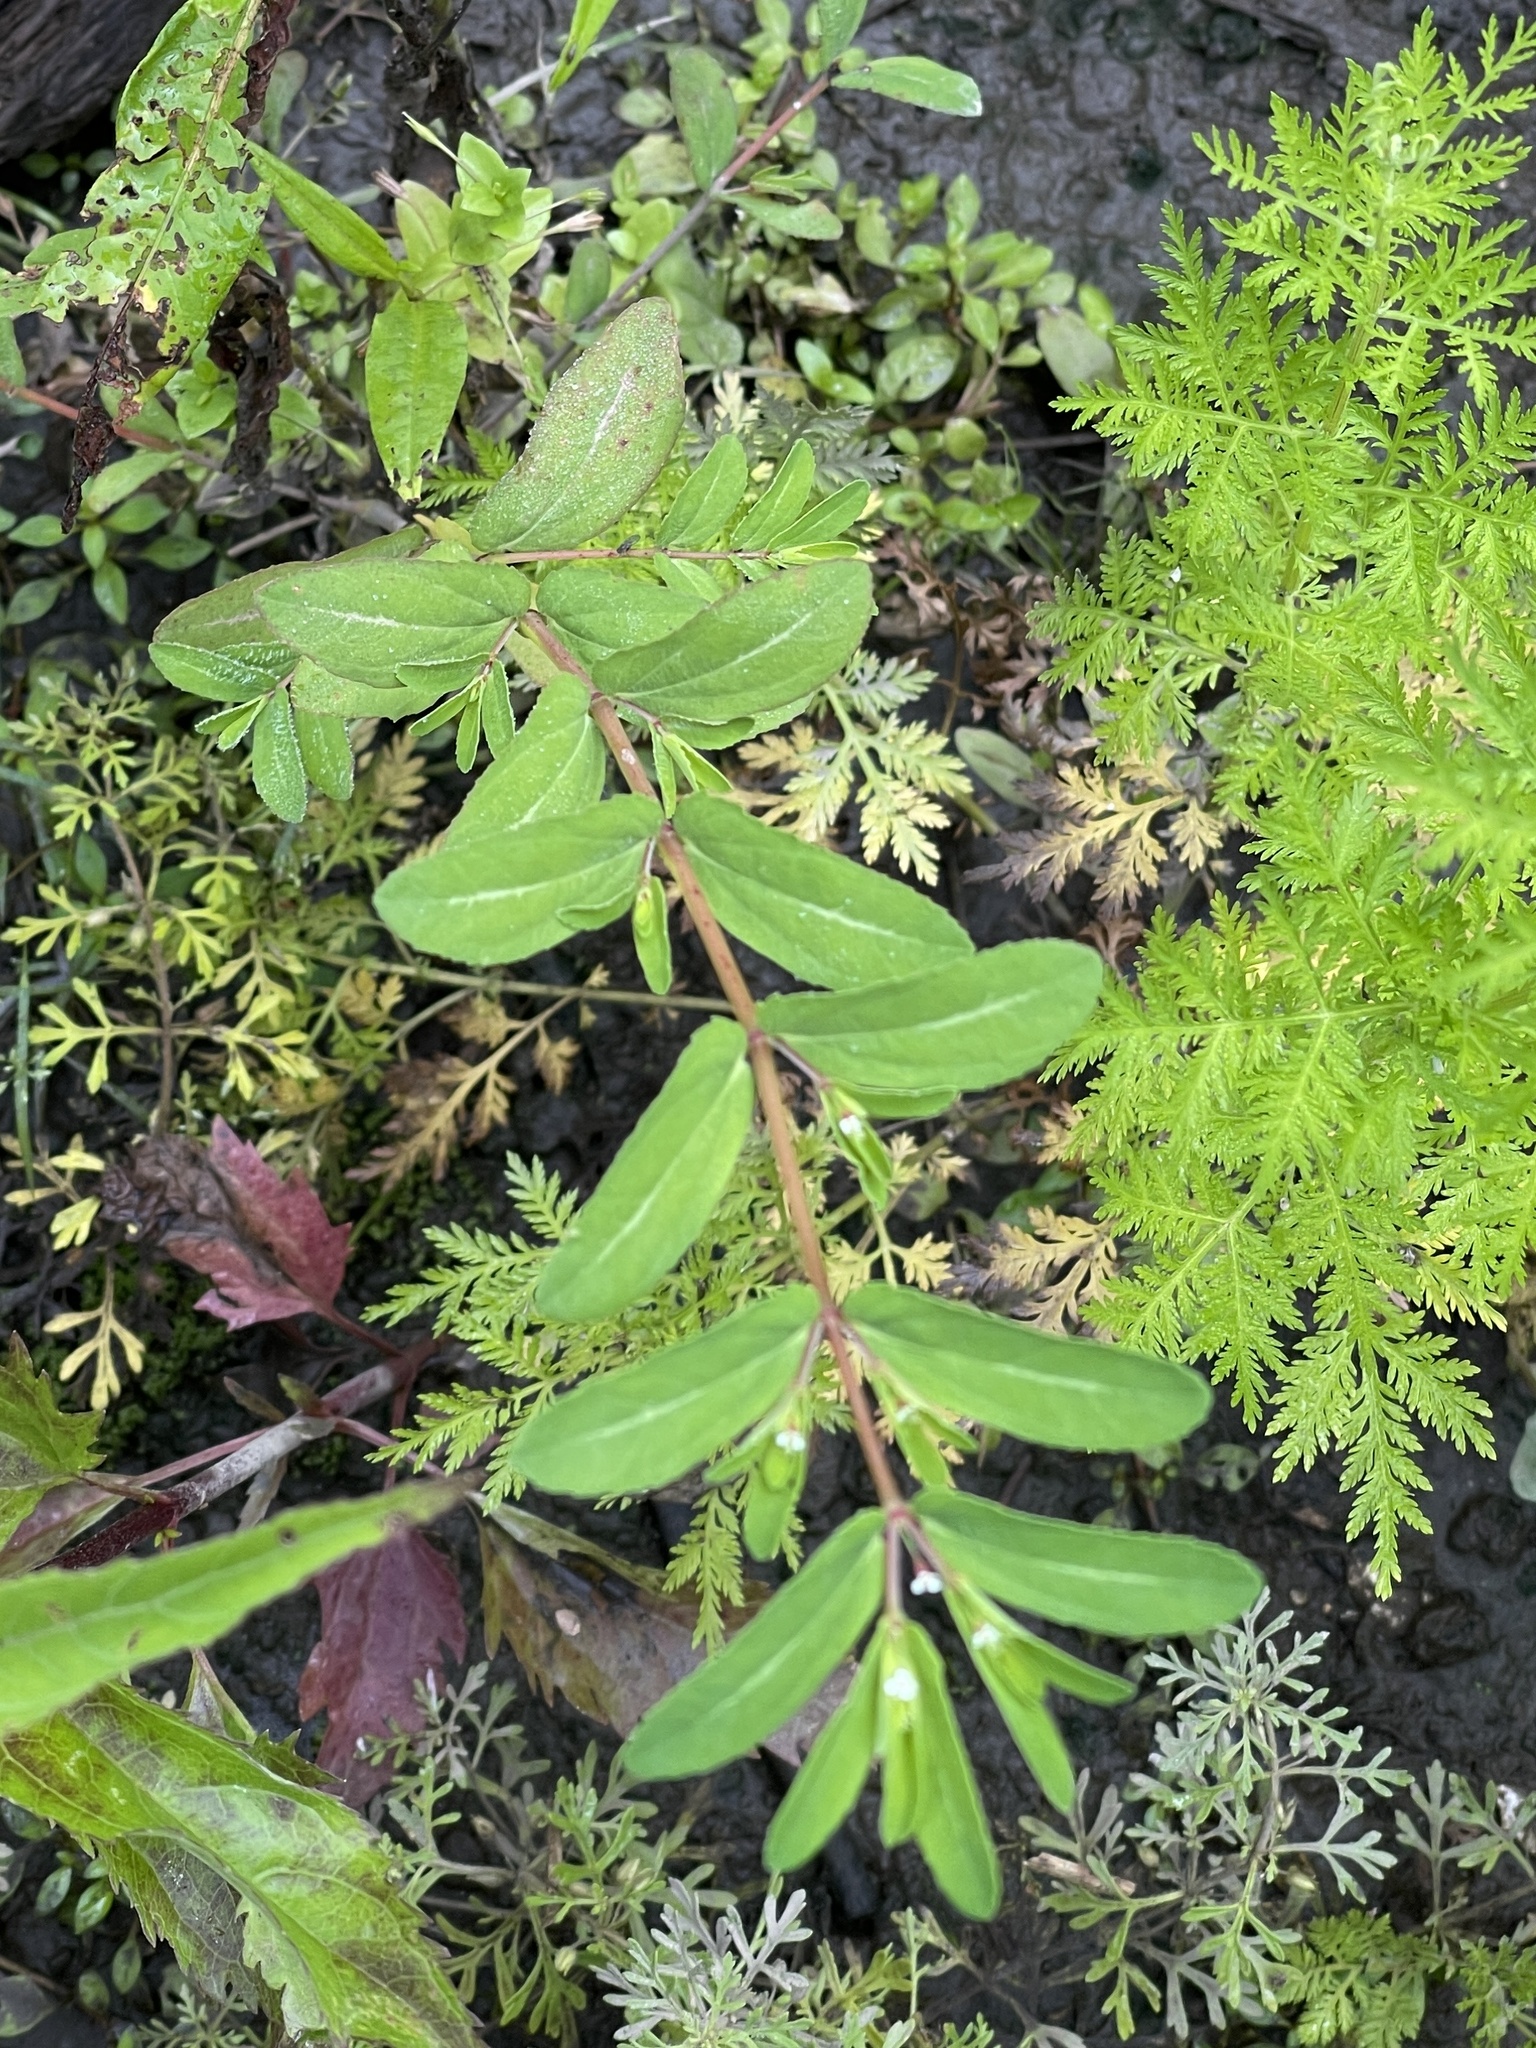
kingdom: Plantae
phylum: Tracheophyta
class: Magnoliopsida
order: Malpighiales
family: Euphorbiaceae
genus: Euphorbia
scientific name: Euphorbia nutans
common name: Eyebane
